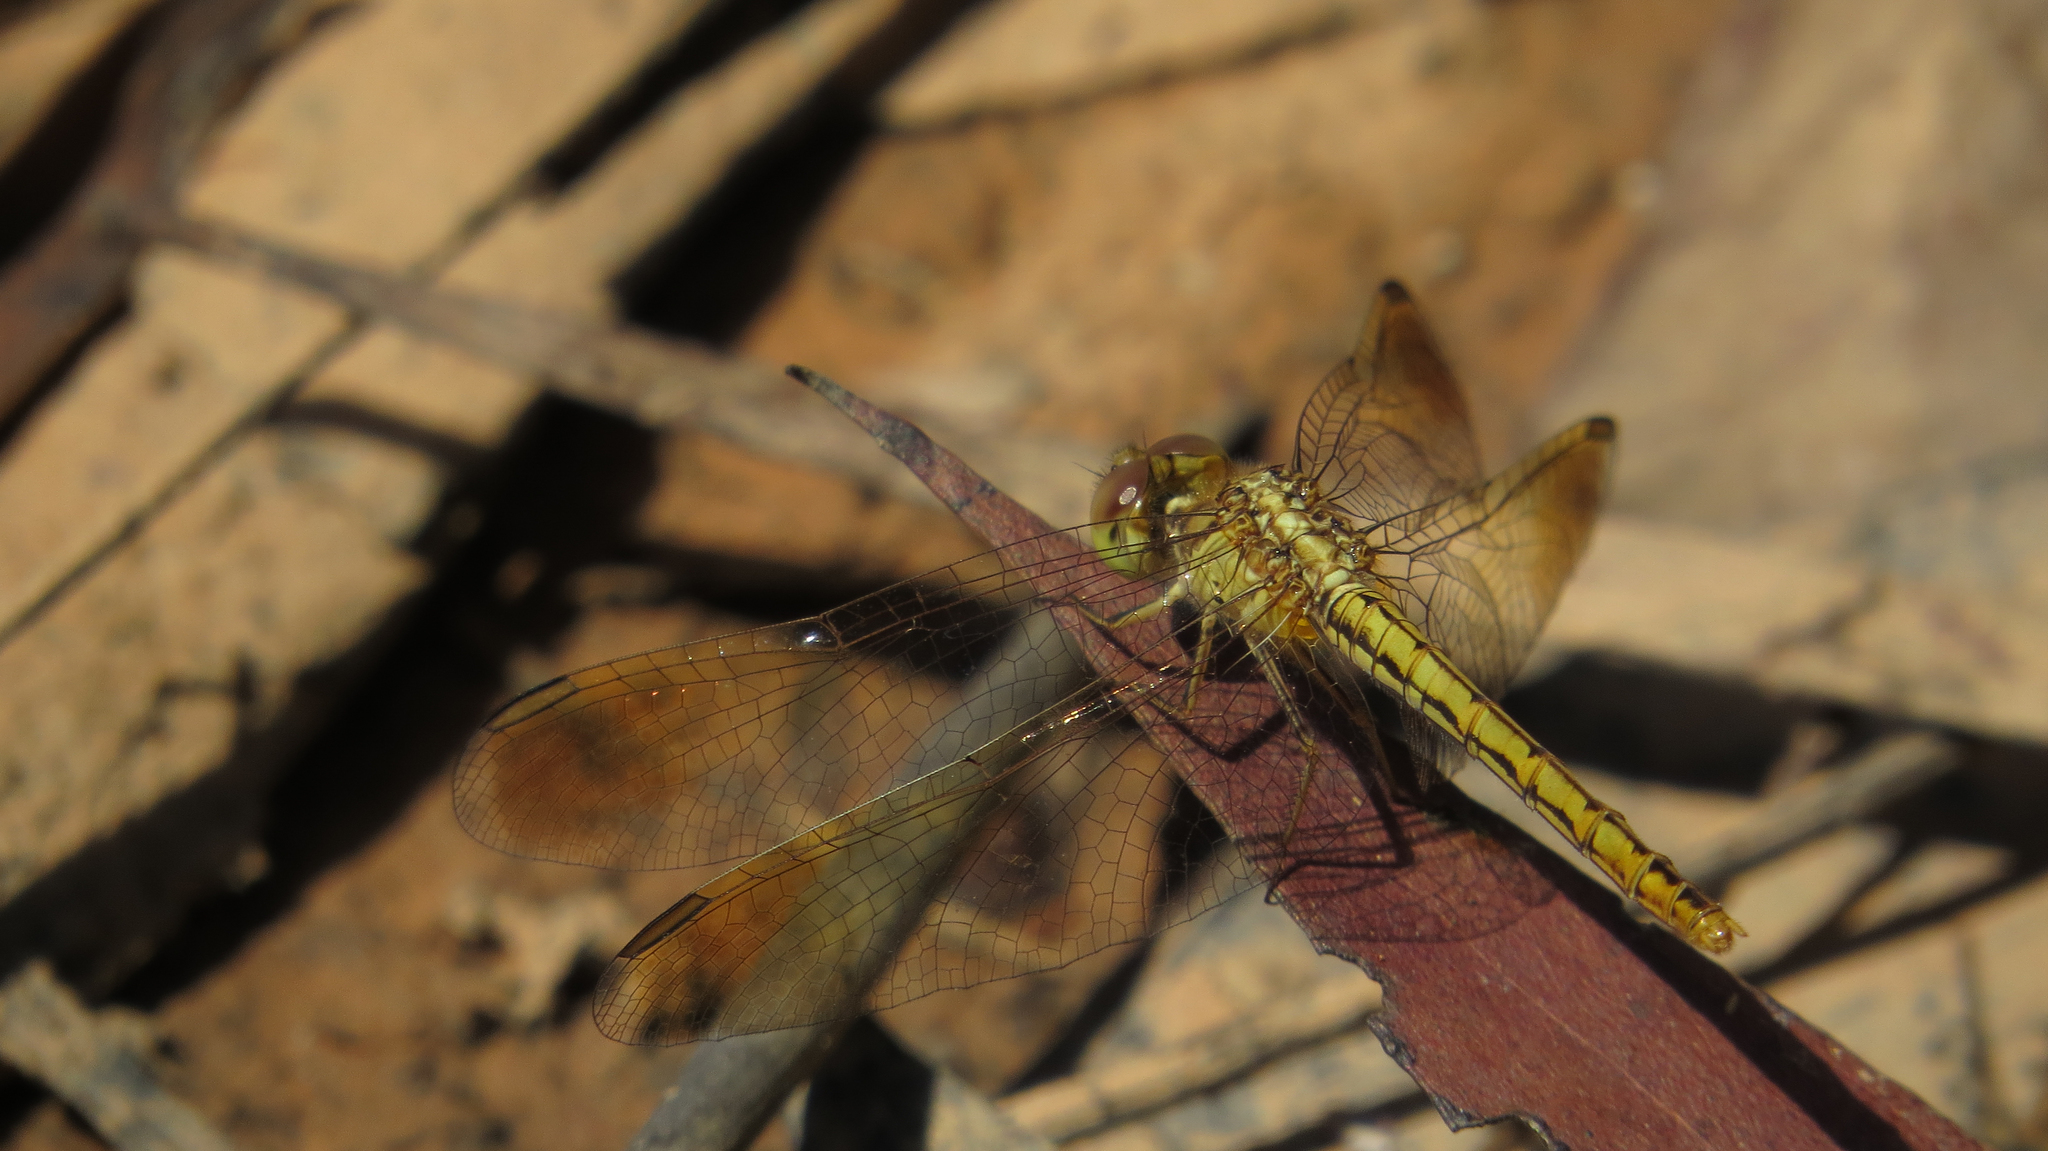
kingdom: Animalia
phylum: Arthropoda
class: Insecta
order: Odonata
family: Libellulidae
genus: Diplacodes
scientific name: Diplacodes haematodes
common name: Scarlet percher
